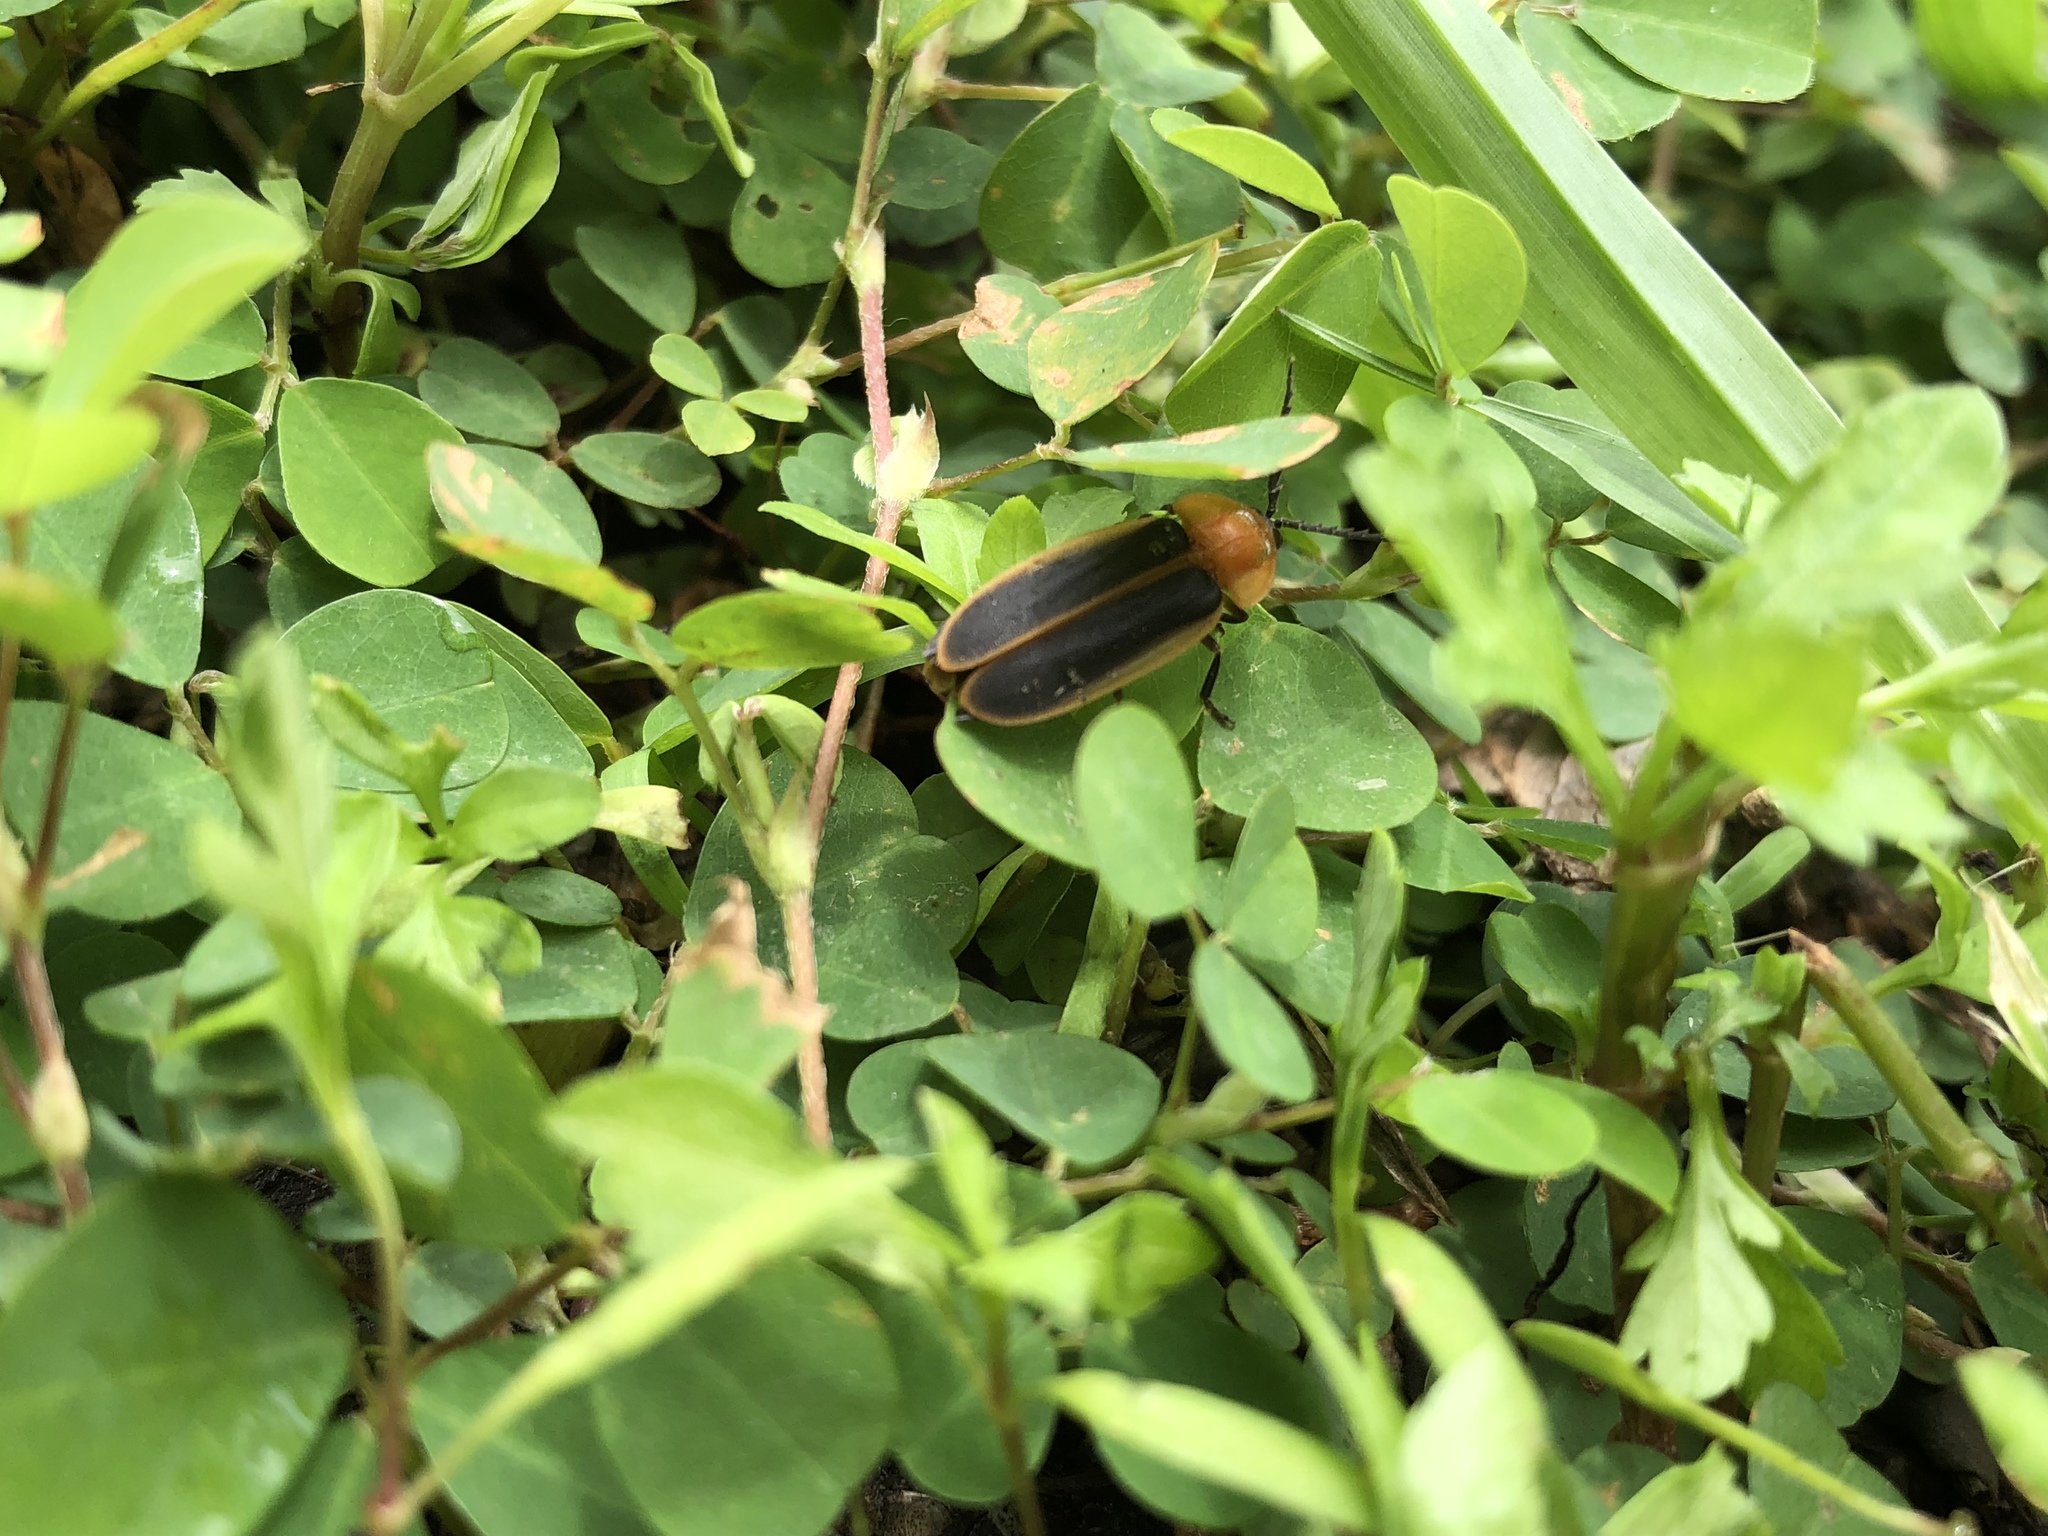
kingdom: Animalia
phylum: Arthropoda
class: Insecta
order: Coleoptera
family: Lampyridae
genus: Pyrocoelia
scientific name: Pyrocoelia analis
